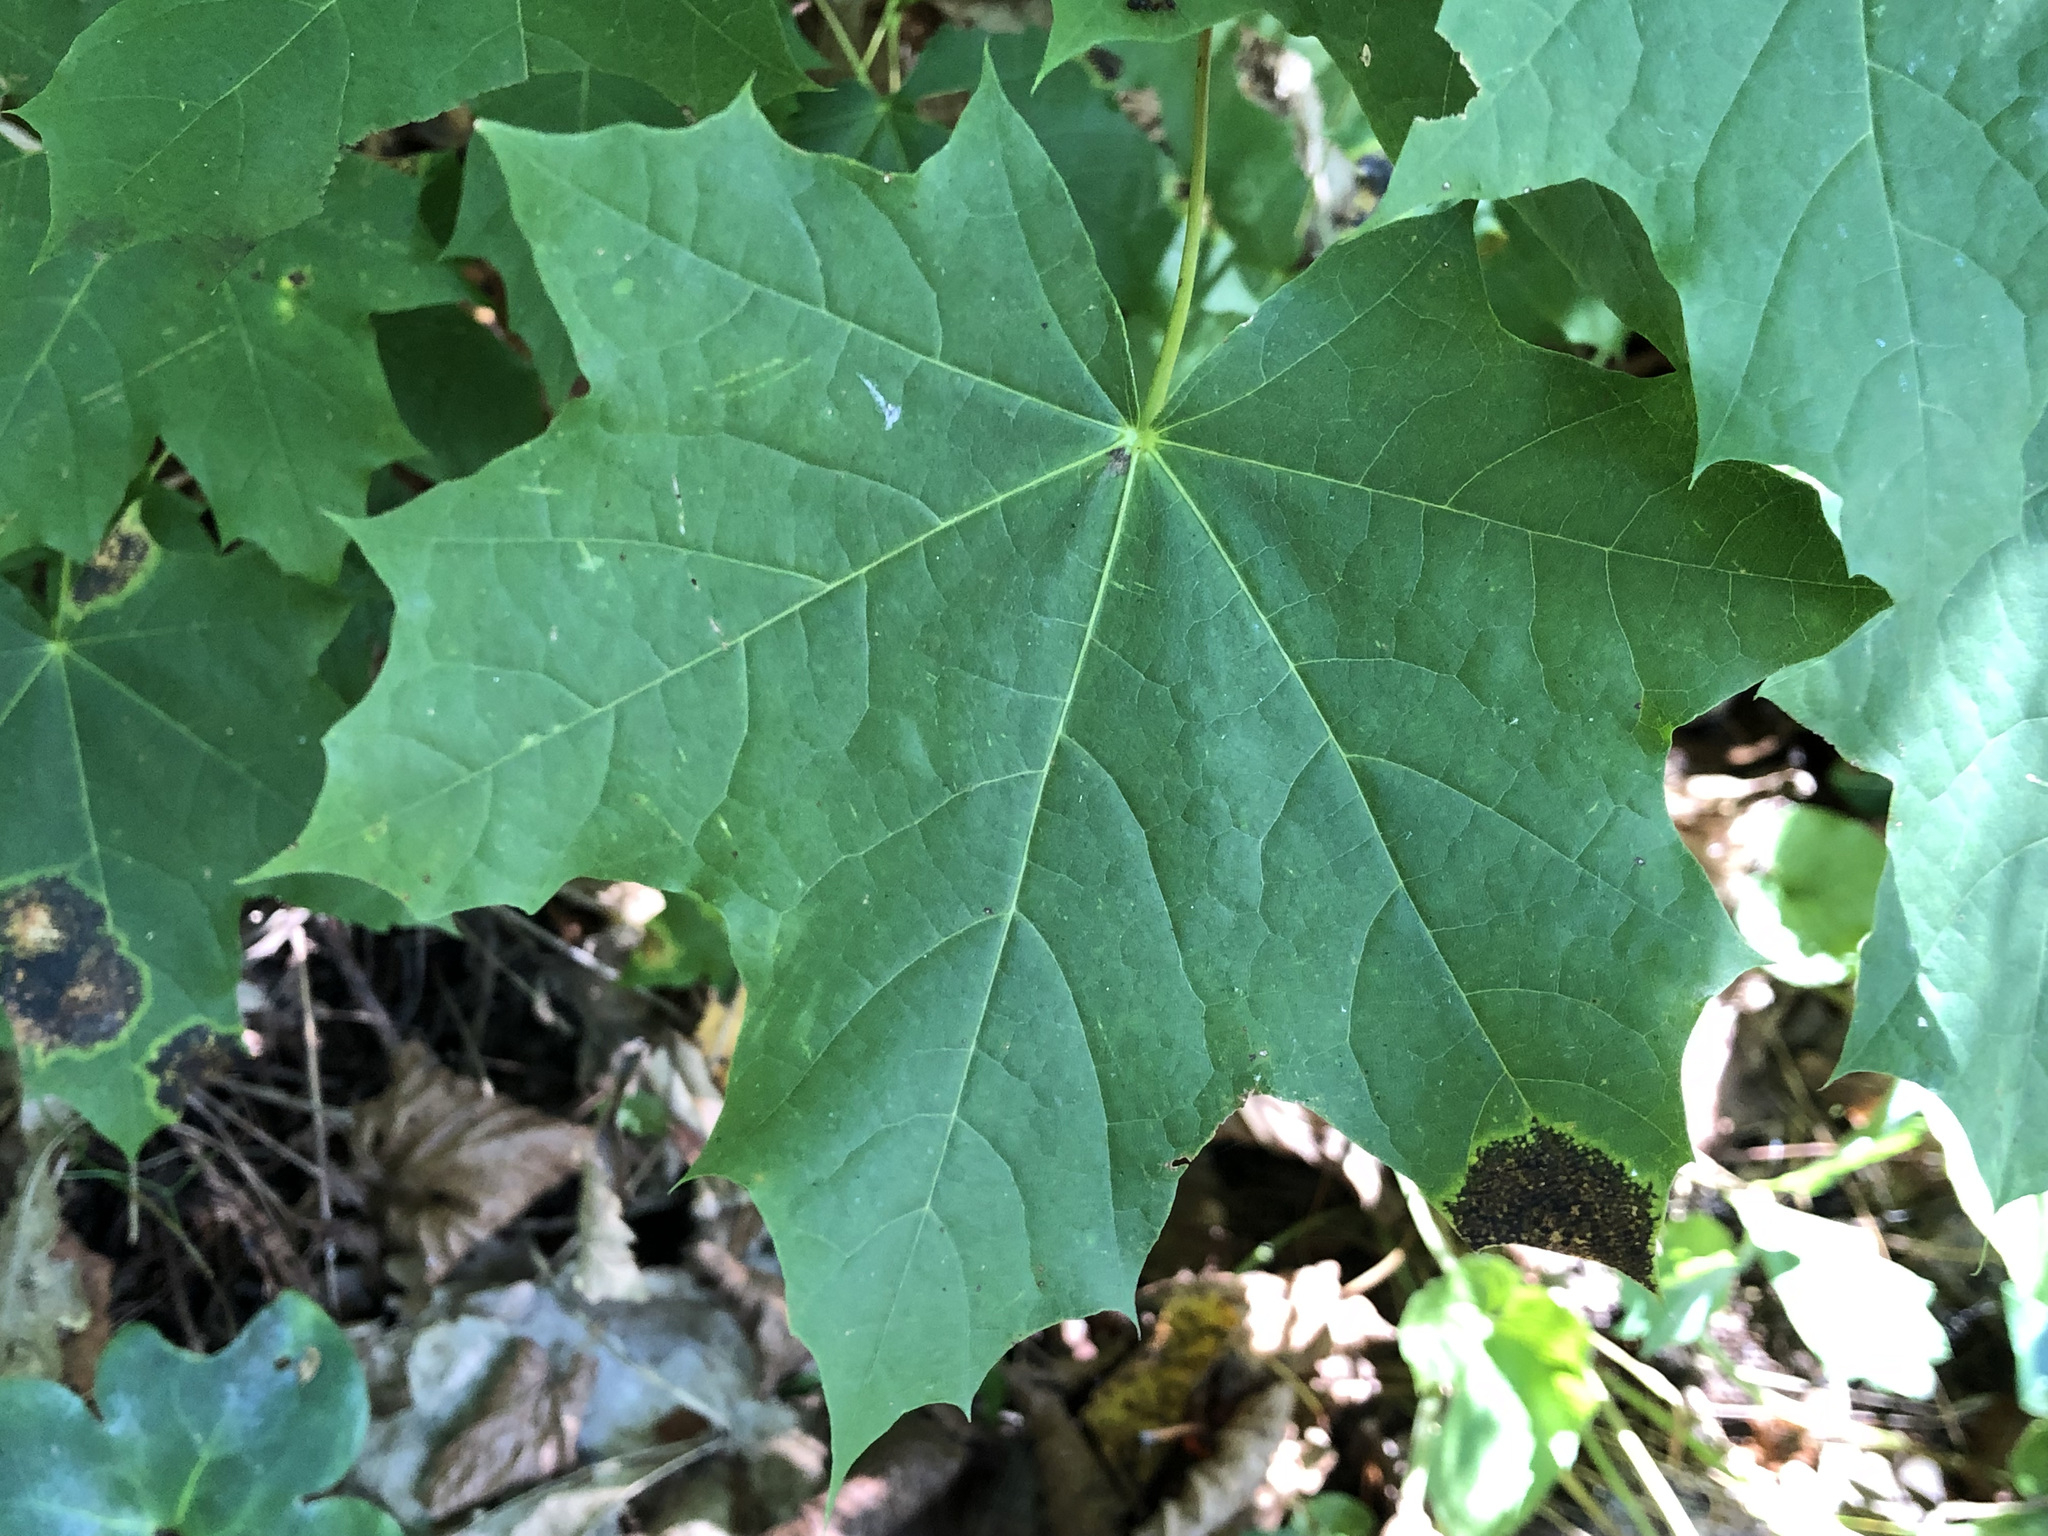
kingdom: Plantae
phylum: Tracheophyta
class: Magnoliopsida
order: Sapindales
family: Sapindaceae
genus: Acer
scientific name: Acer platanoides
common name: Norway maple
